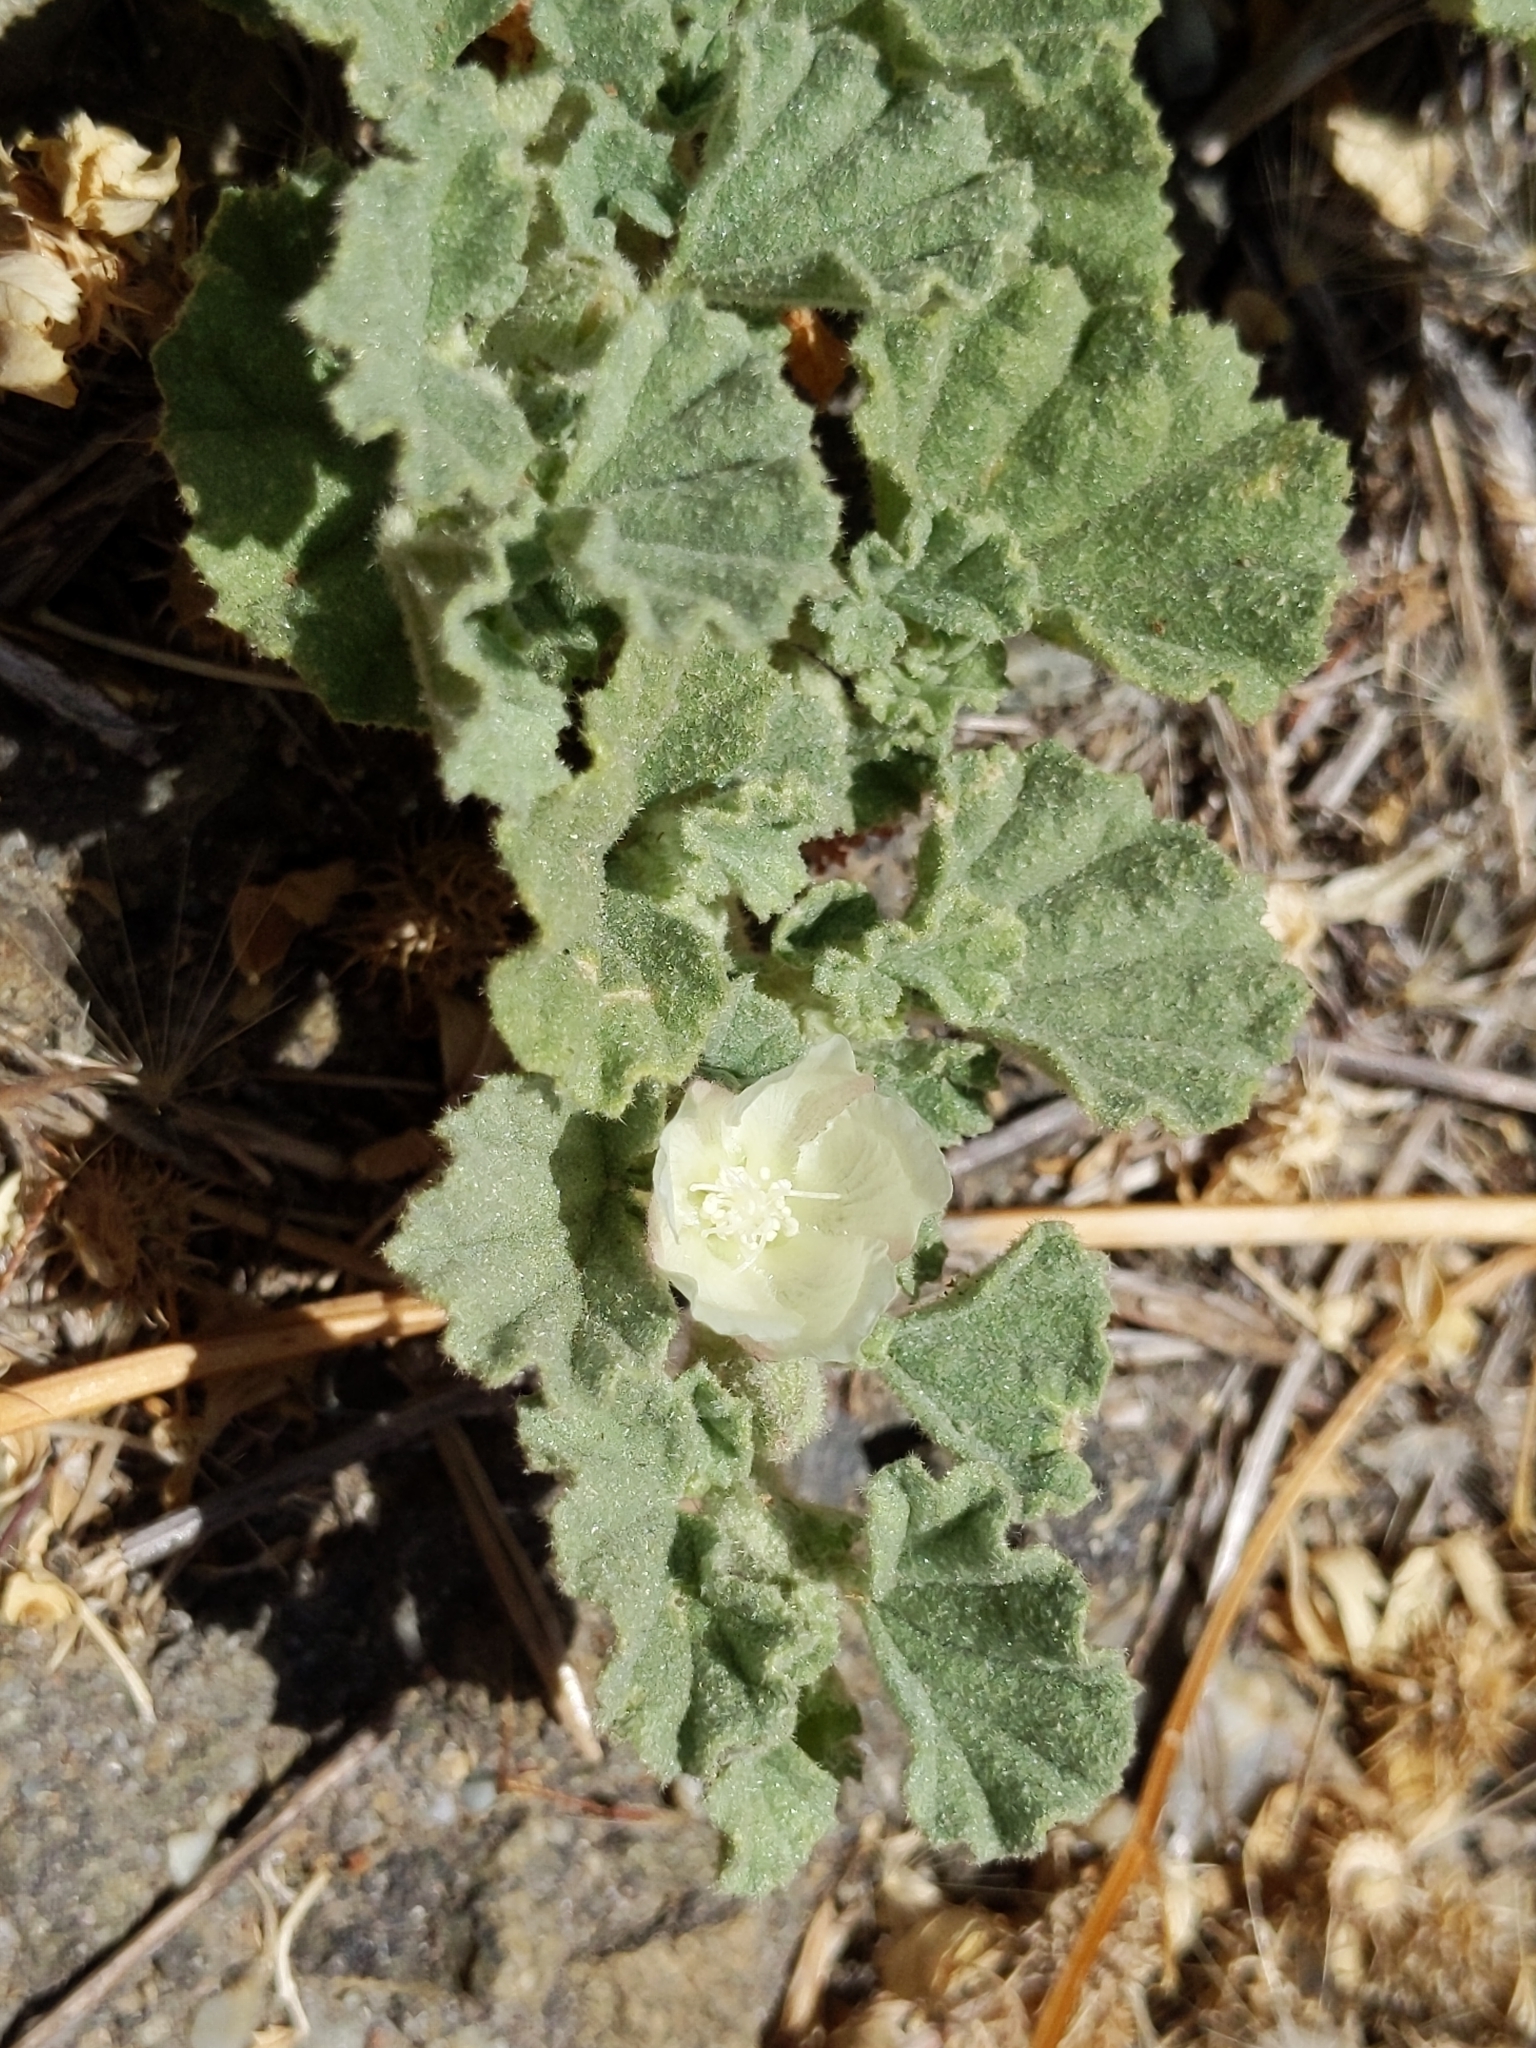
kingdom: Plantae
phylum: Tracheophyta
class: Magnoliopsida
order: Malvales
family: Malvaceae
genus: Malvella
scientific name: Malvella leprosa
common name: Alkali-mallow
